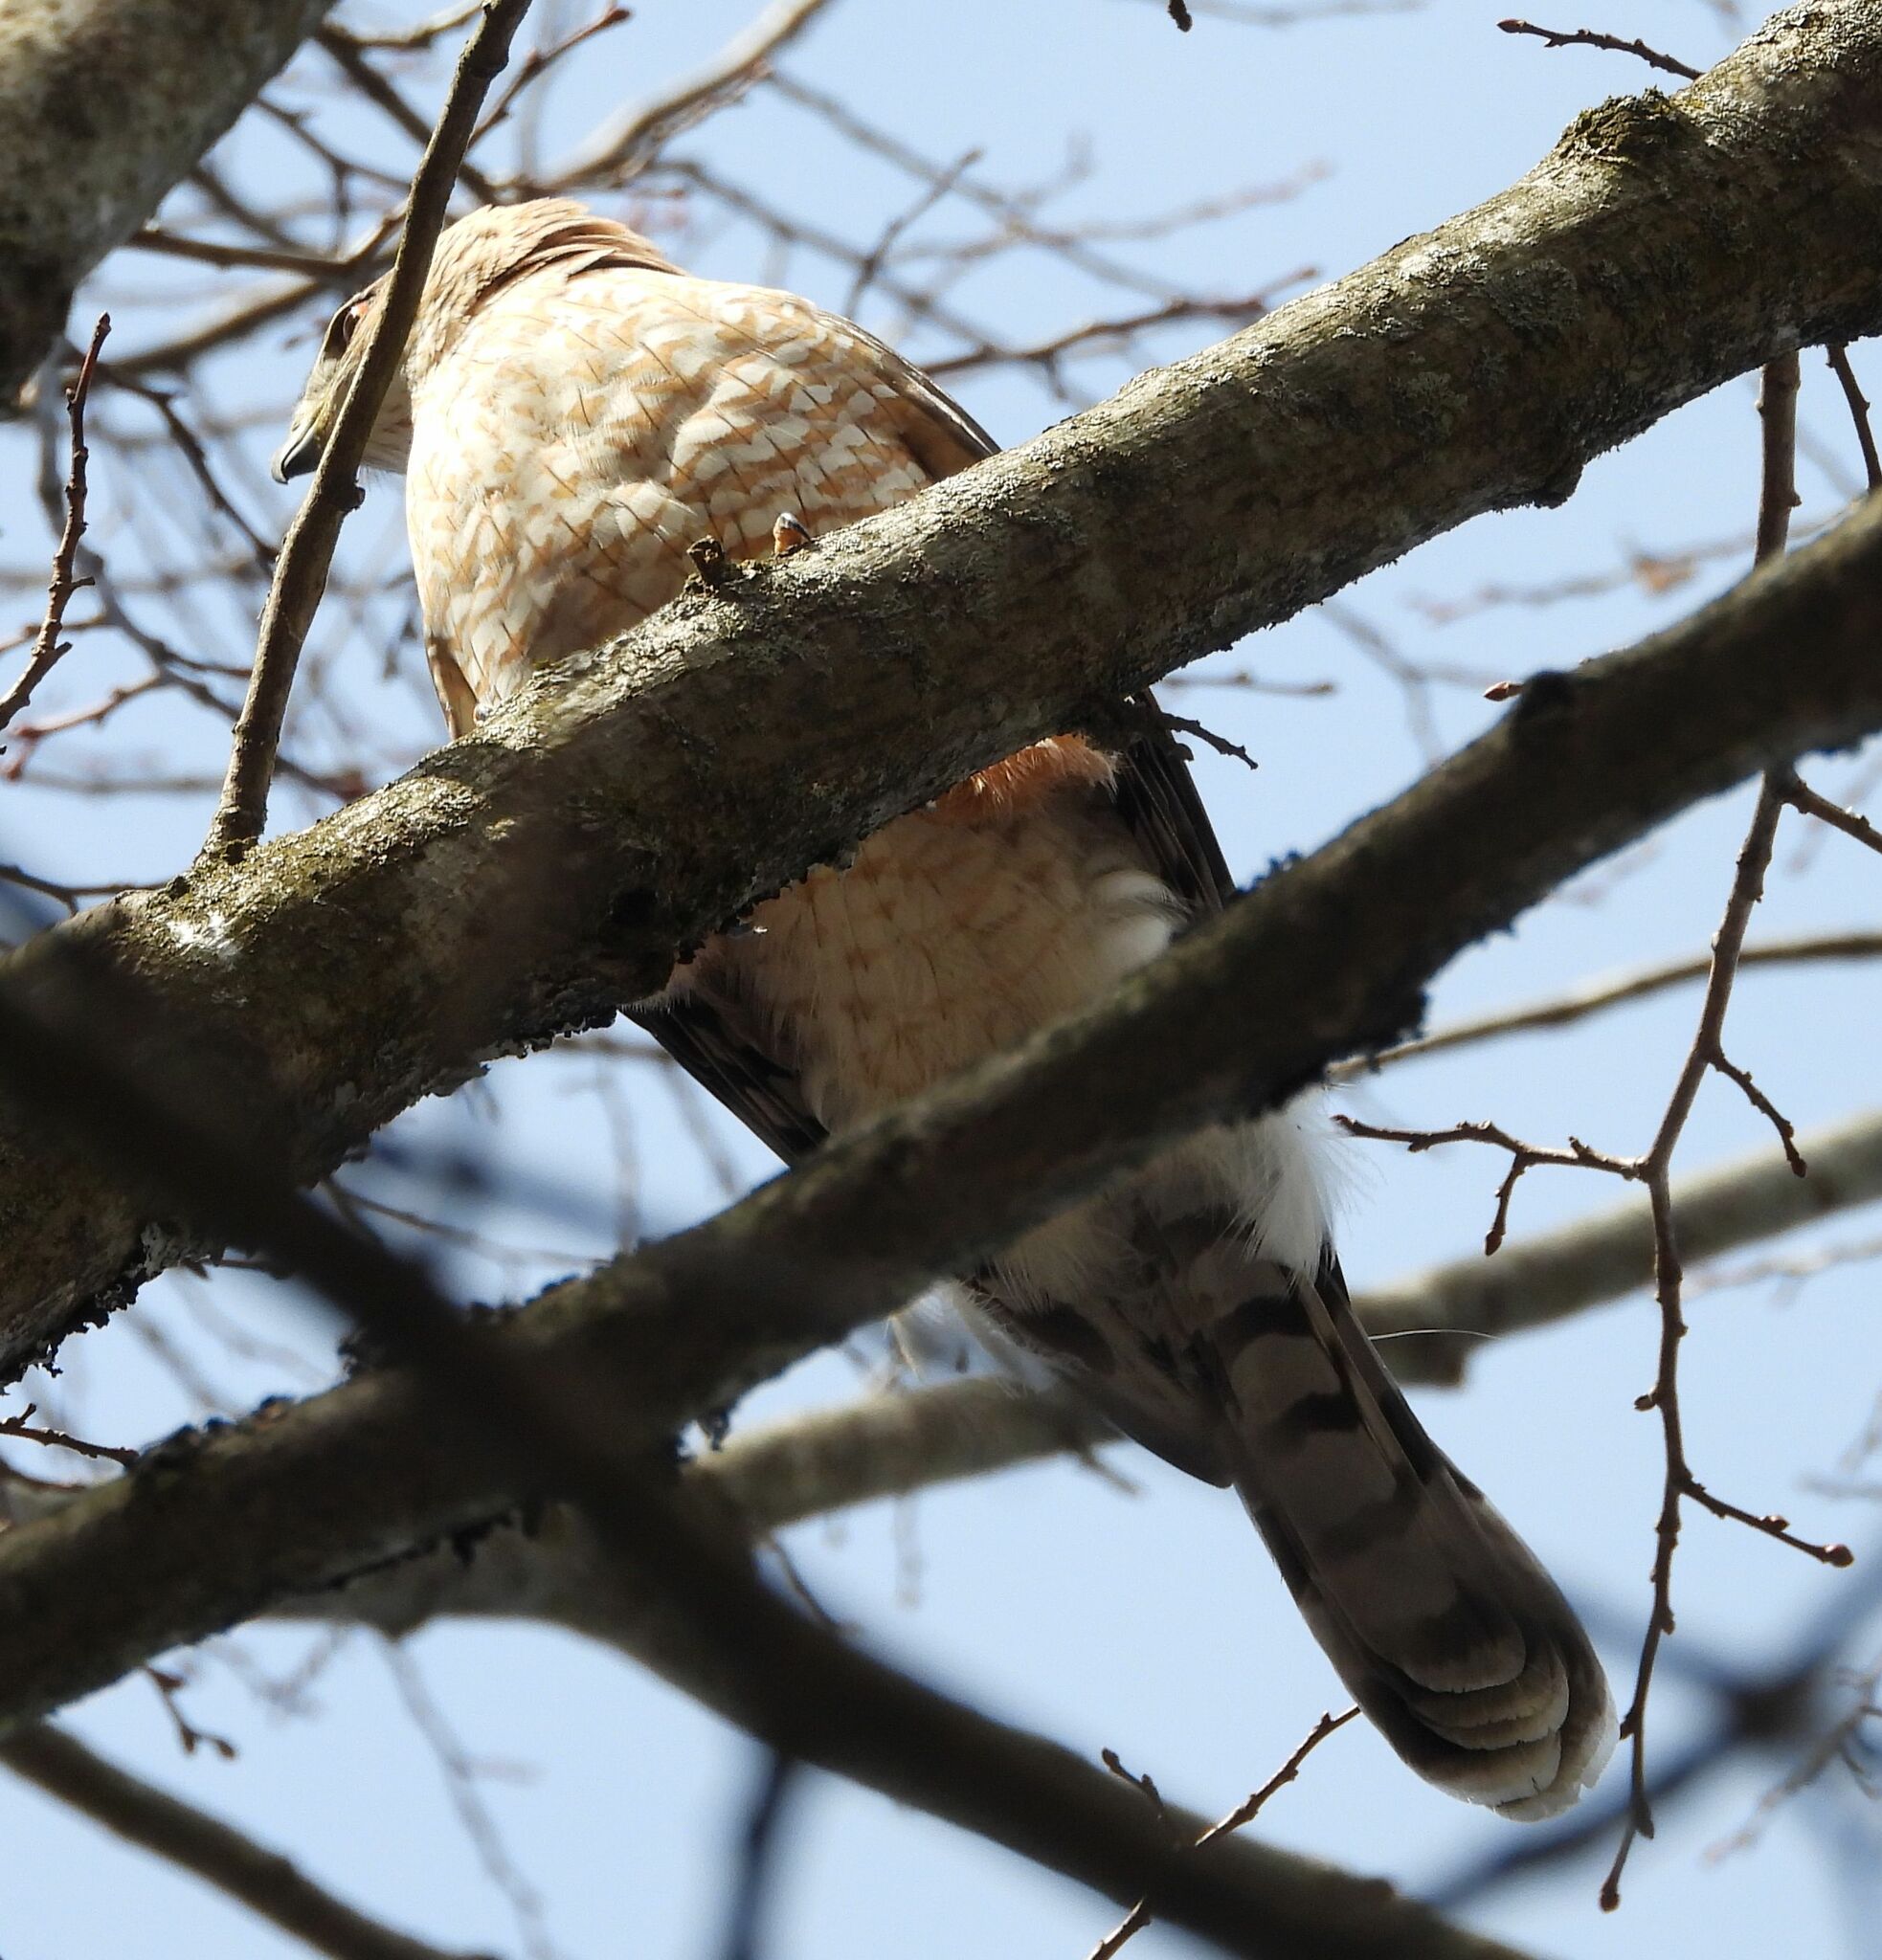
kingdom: Animalia
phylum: Chordata
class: Aves
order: Accipitriformes
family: Accipitridae
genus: Accipiter
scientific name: Accipiter cooperii
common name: Cooper's hawk
